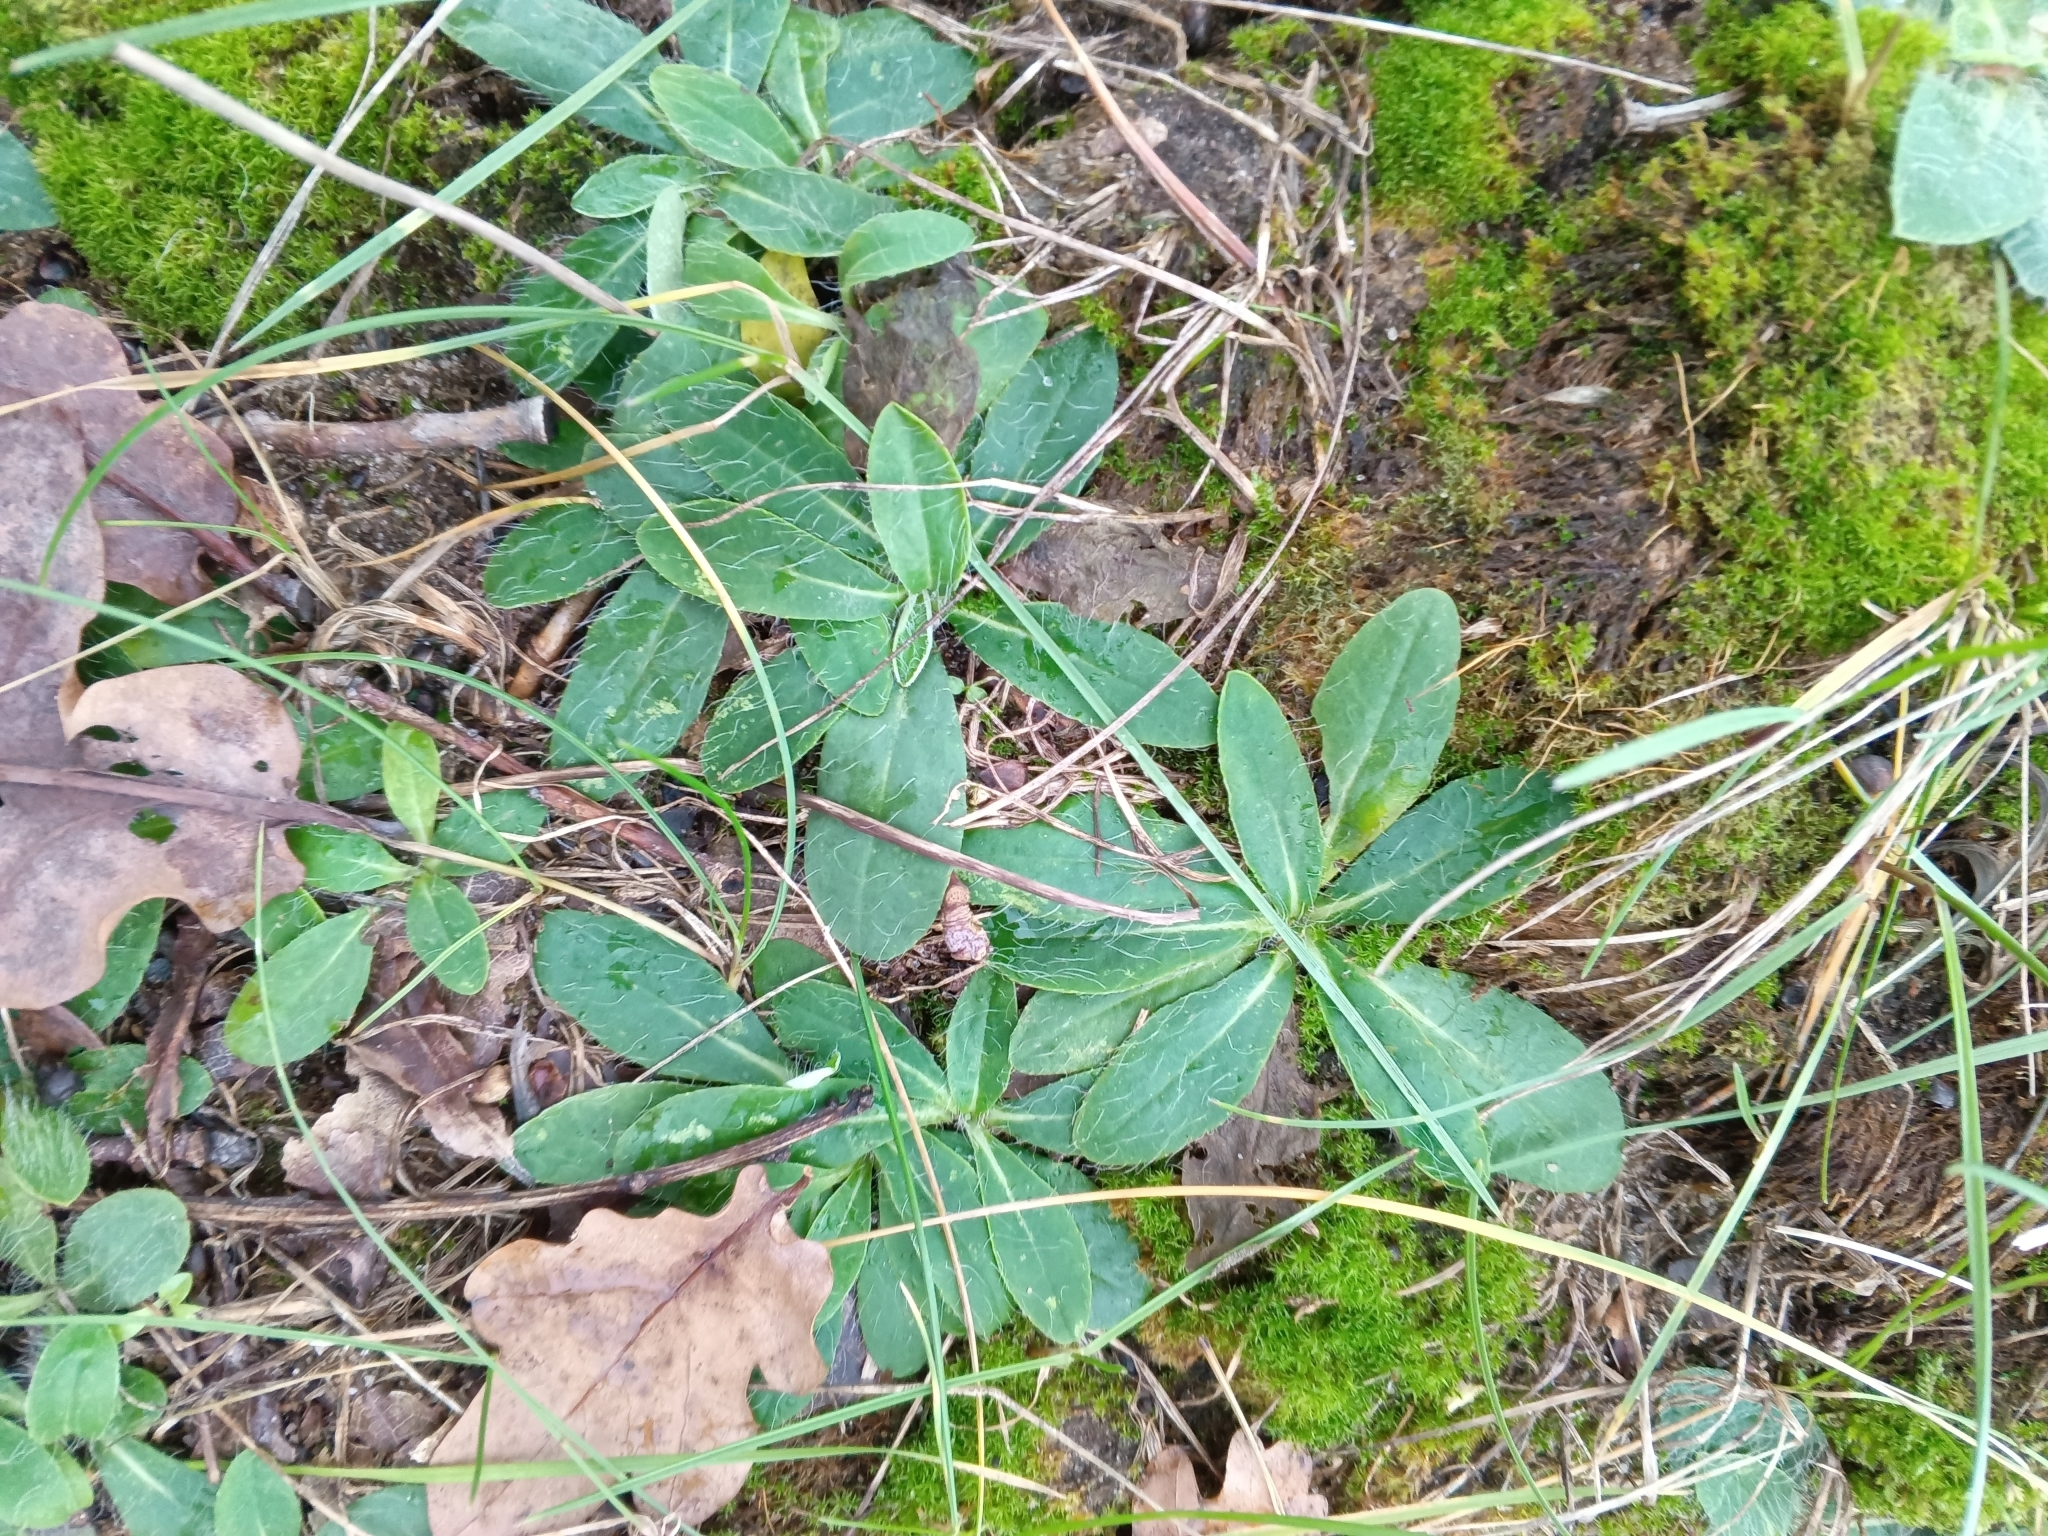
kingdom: Plantae
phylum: Tracheophyta
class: Magnoliopsida
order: Asterales
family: Asteraceae
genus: Pilosella
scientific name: Pilosella officinarum
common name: Mouse-ear hawkweed
